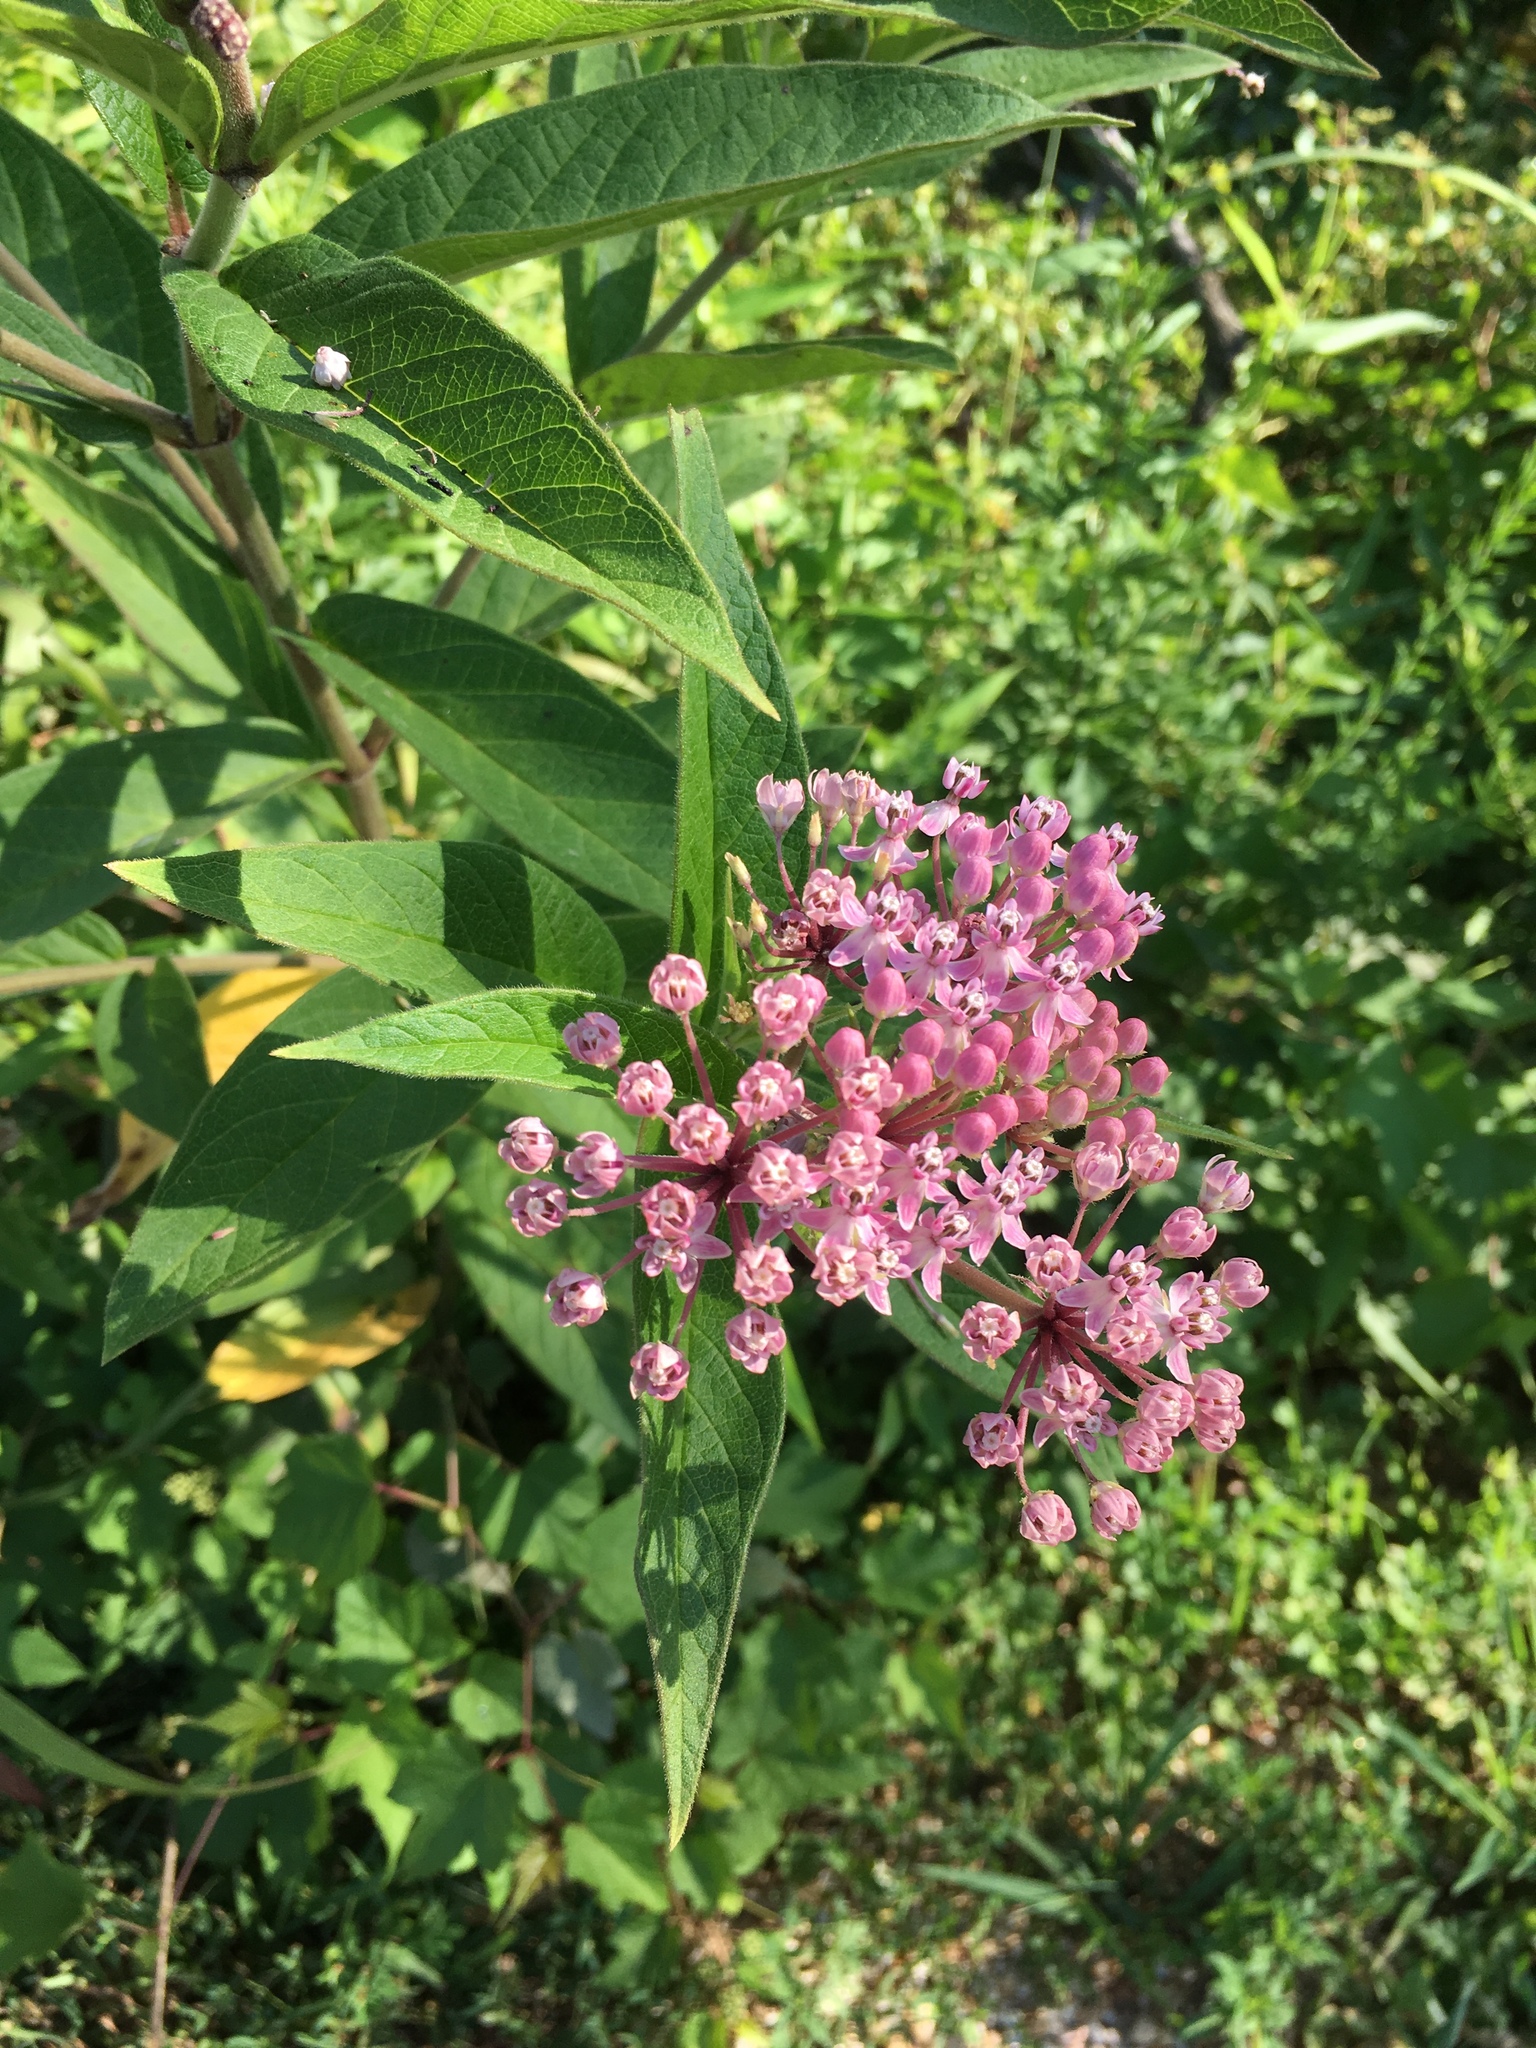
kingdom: Plantae
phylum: Tracheophyta
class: Magnoliopsida
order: Gentianales
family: Apocynaceae
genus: Asclepias
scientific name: Asclepias incarnata
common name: Swamp milkweed
